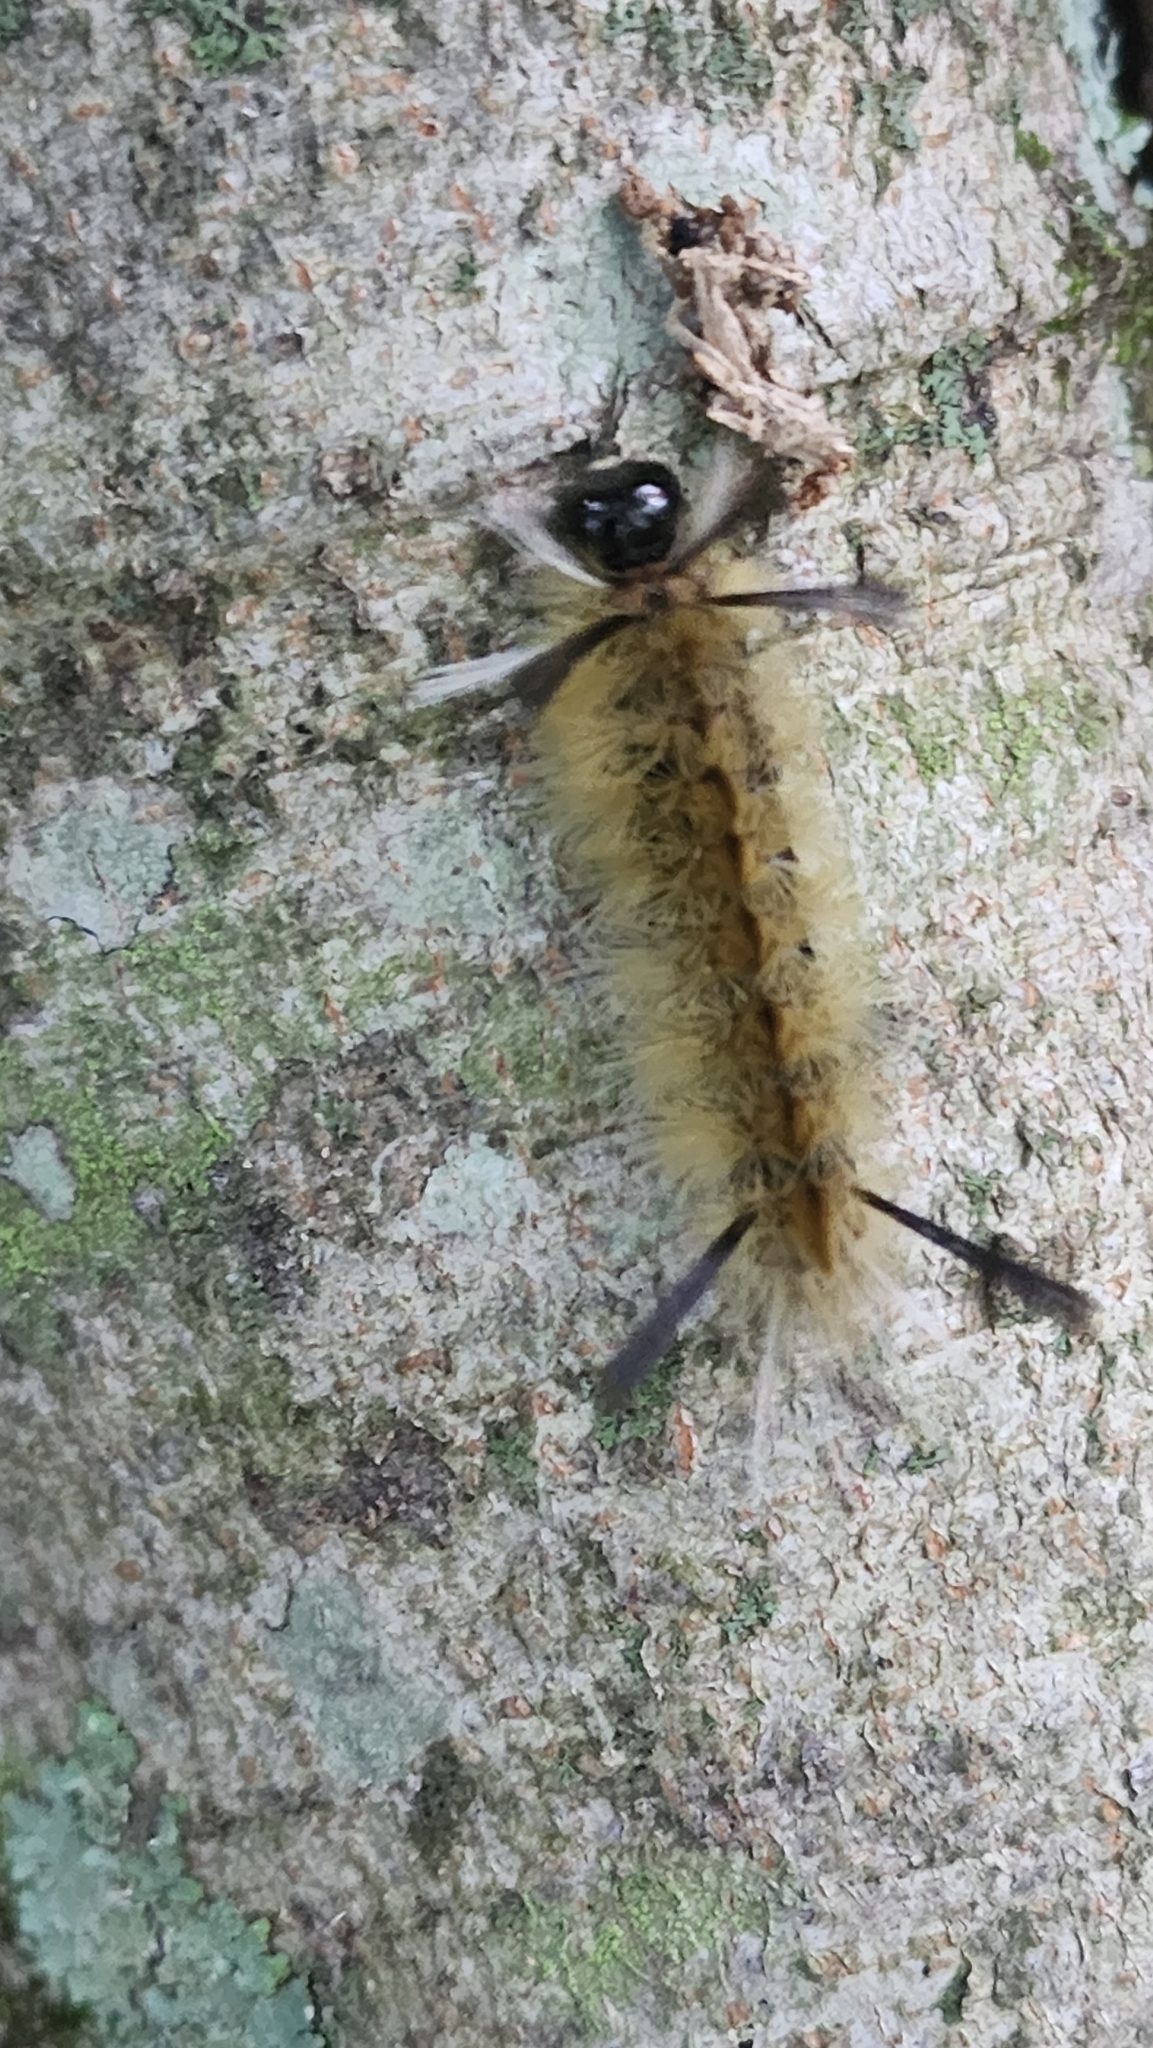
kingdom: Animalia
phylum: Arthropoda
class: Insecta
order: Lepidoptera
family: Erebidae
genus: Halysidota
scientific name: Halysidota tessellaris
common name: Banded tussock moth
